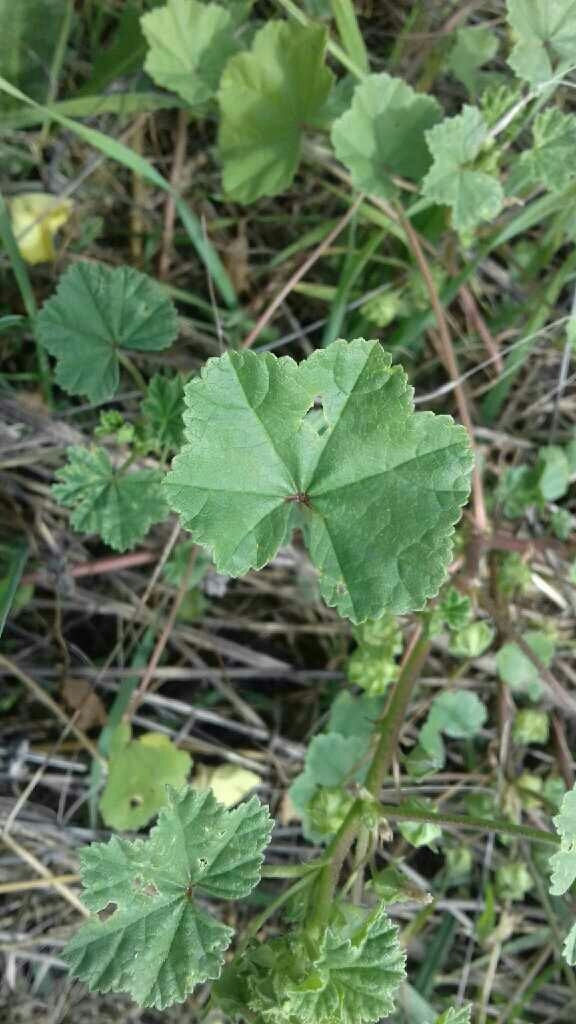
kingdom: Plantae
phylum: Tracheophyta
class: Magnoliopsida
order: Malvales
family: Malvaceae
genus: Malva
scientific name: Malva neglecta
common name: Common mallow
